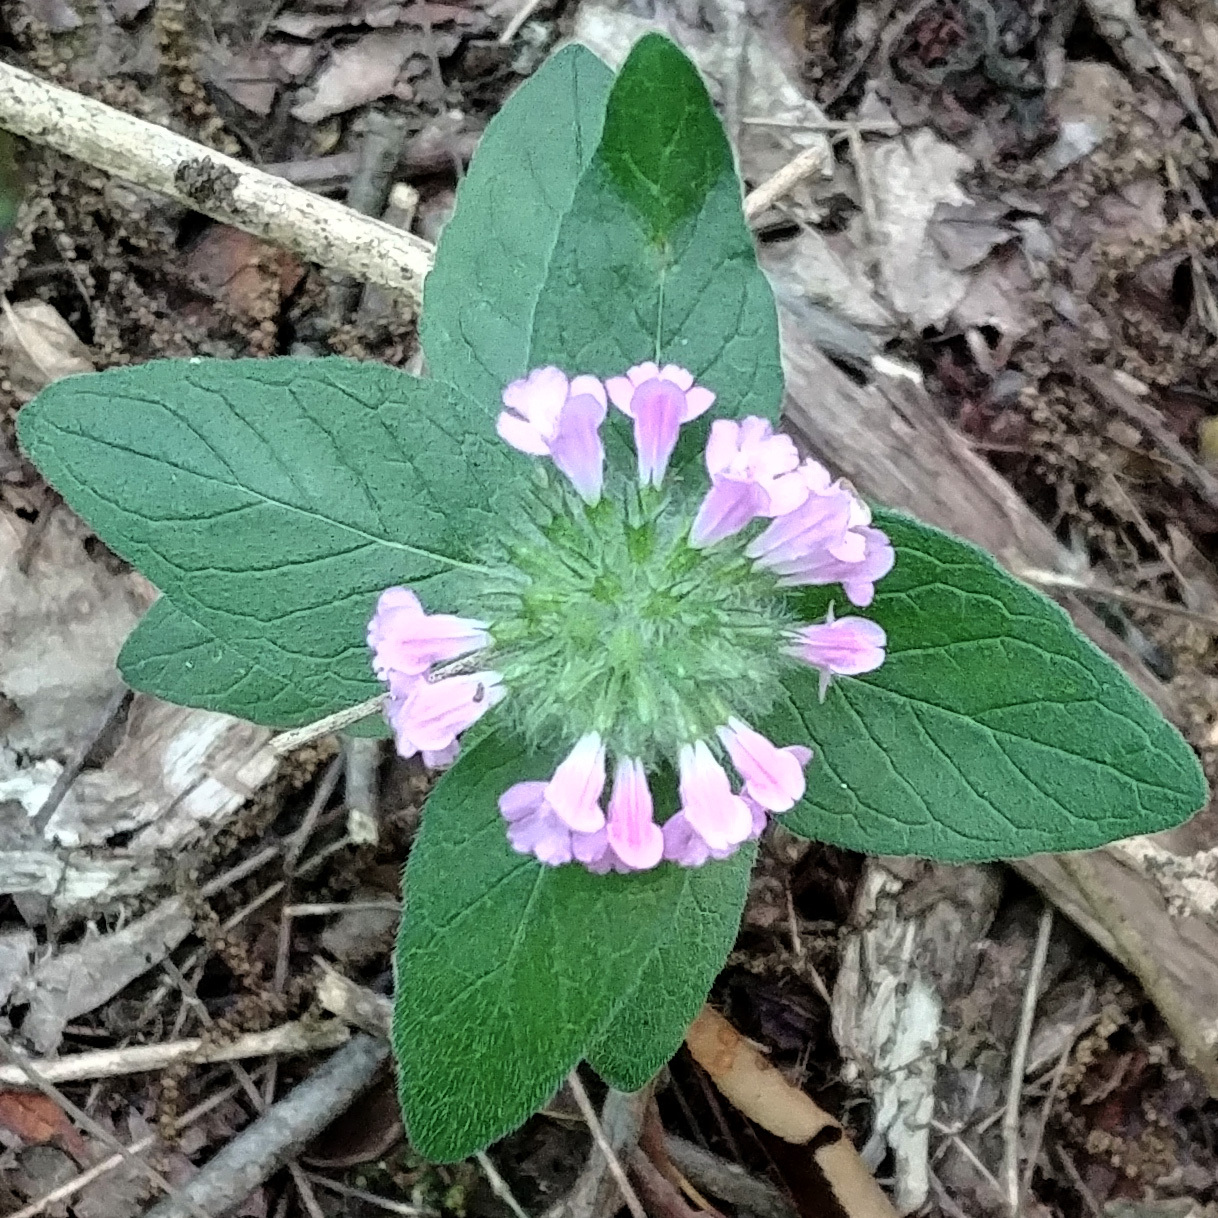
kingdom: Plantae
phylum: Tracheophyta
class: Magnoliopsida
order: Lamiales
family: Lamiaceae
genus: Clinopodium
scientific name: Clinopodium vulgare
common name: Wild basil
